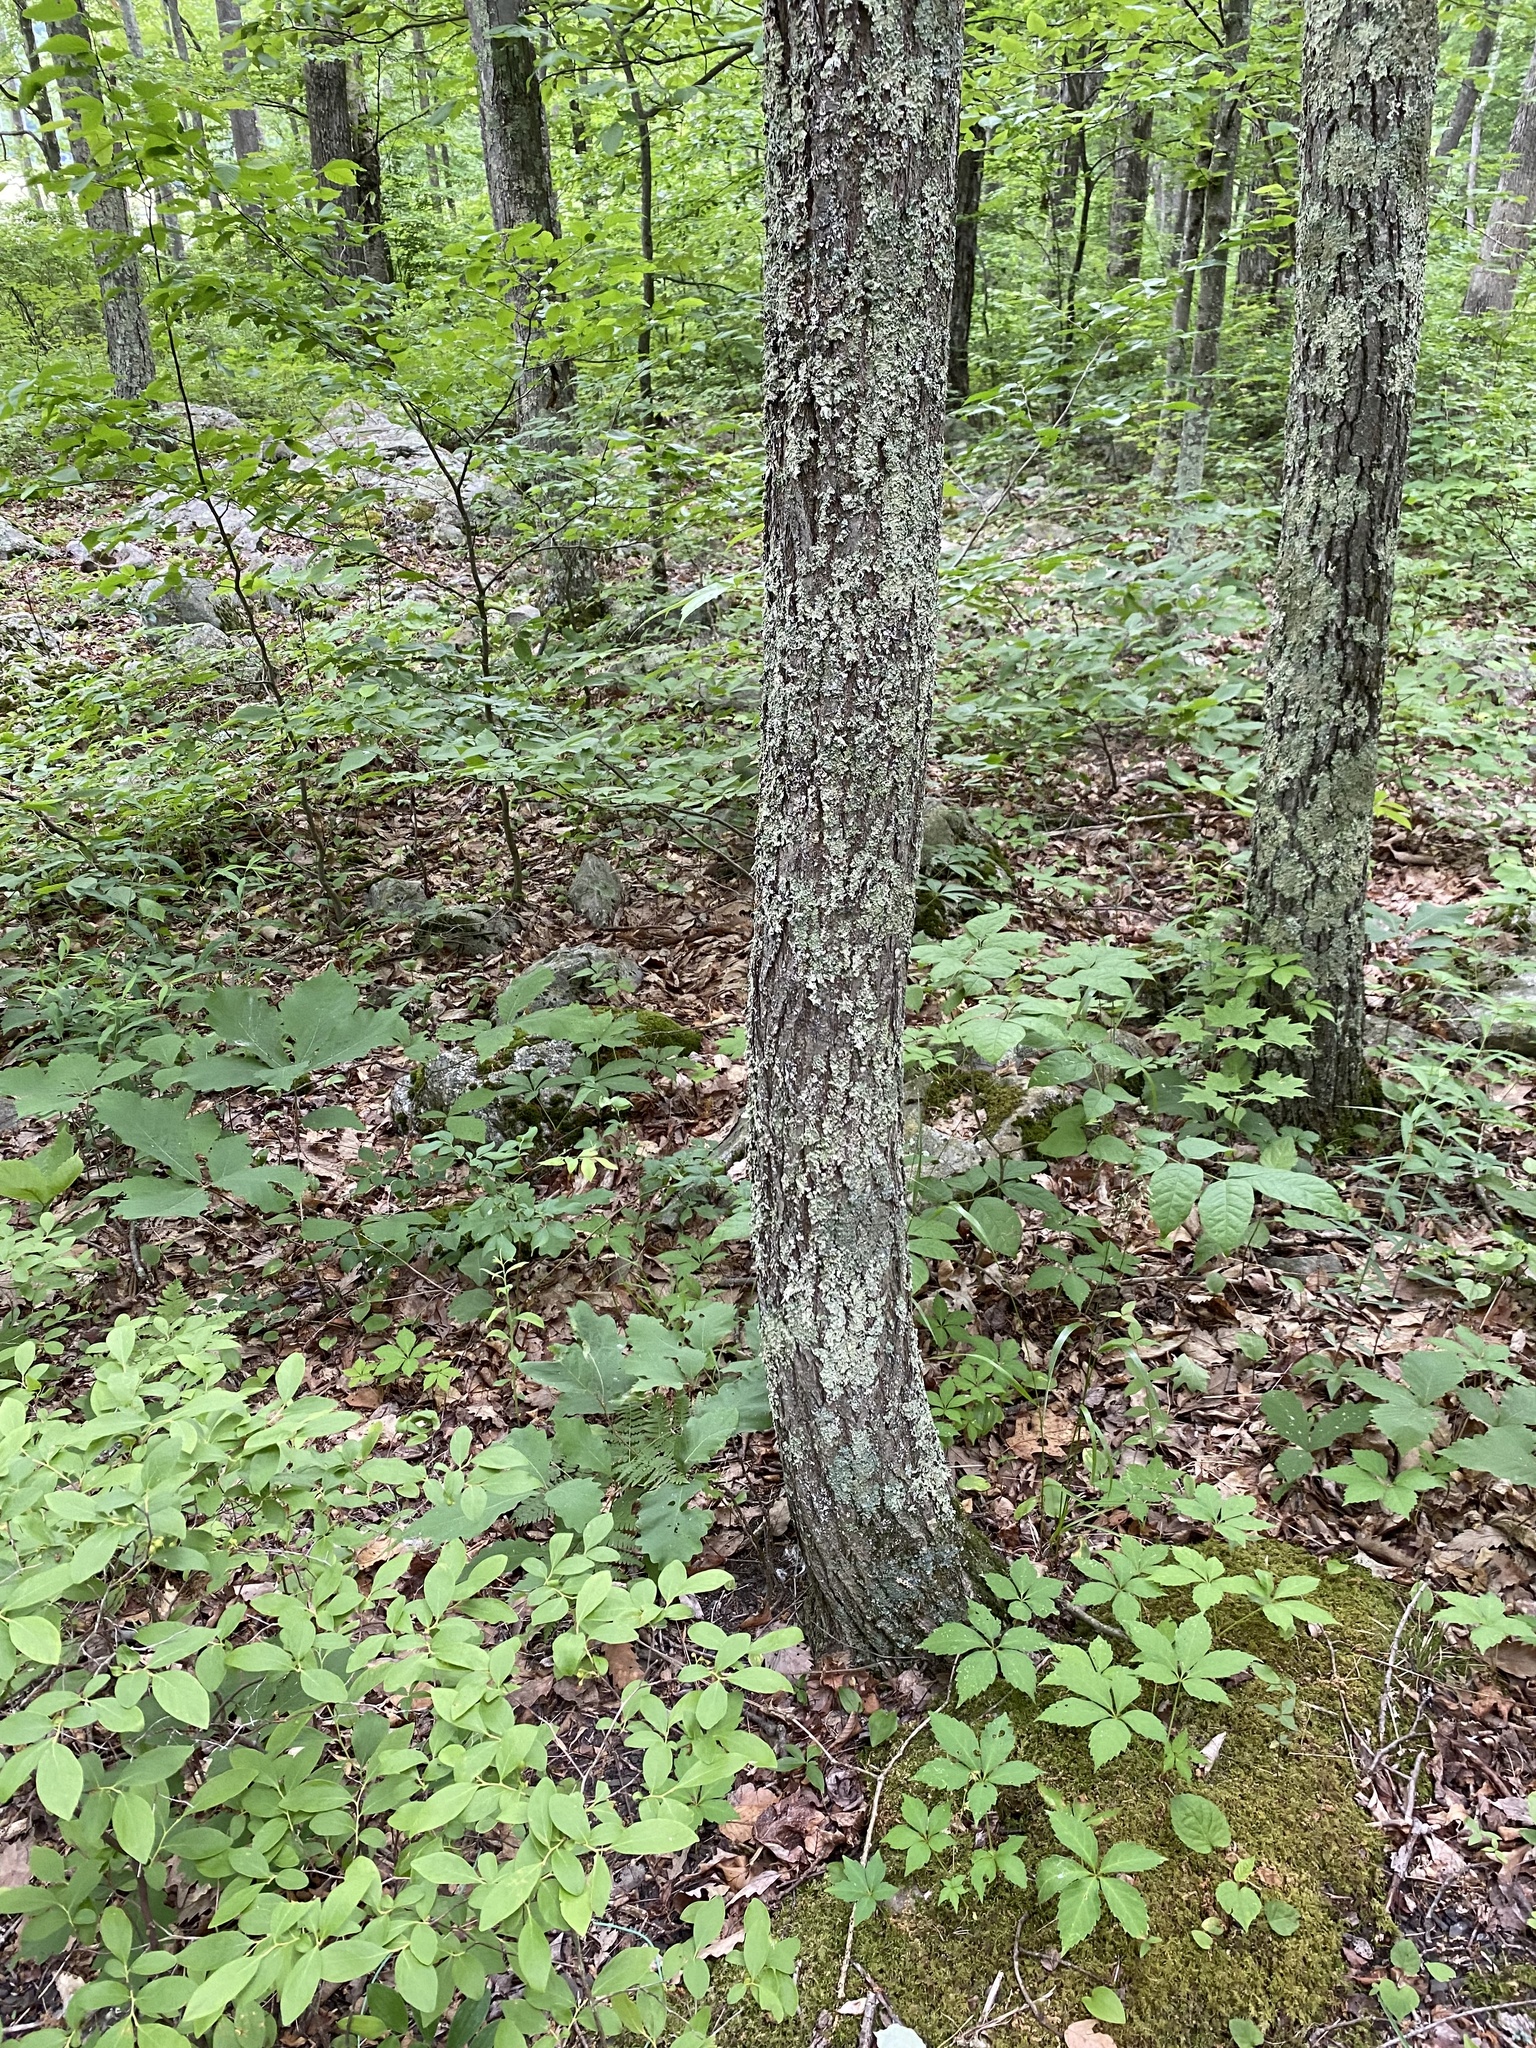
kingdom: Plantae
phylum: Tracheophyta
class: Magnoliopsida
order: Fagales
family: Fagaceae
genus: Castanea
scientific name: Castanea dentata
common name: American chestnut
